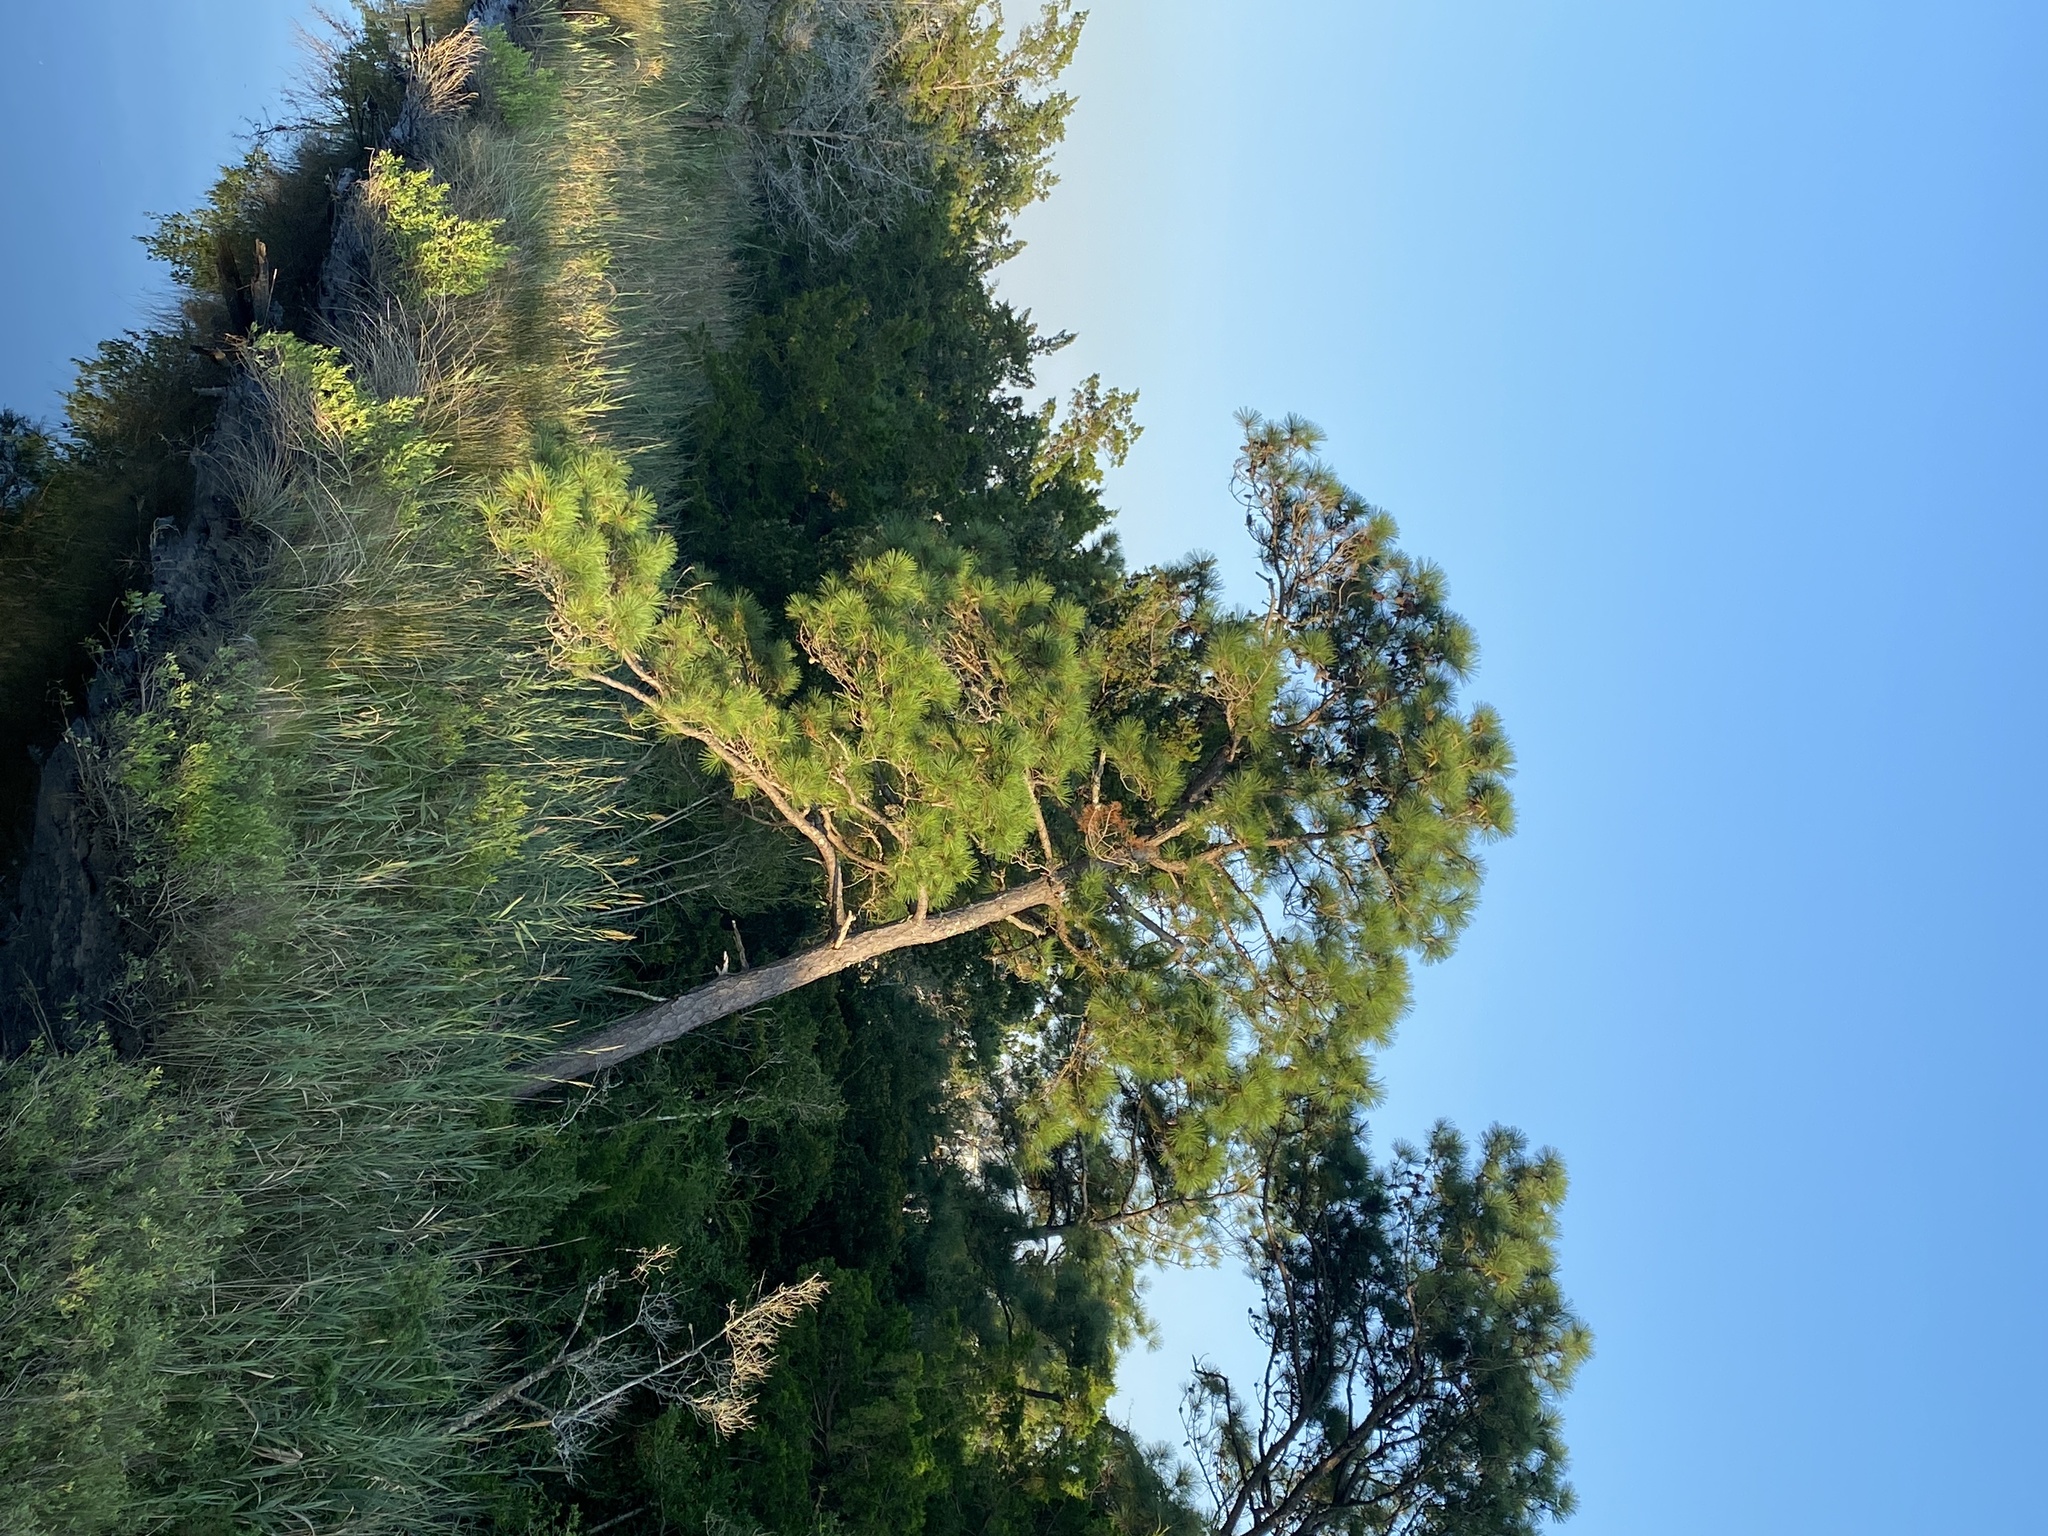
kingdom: Plantae
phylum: Tracheophyta
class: Pinopsida
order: Pinales
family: Pinaceae
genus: Pinus
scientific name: Pinus taeda
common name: Loblolly pine
